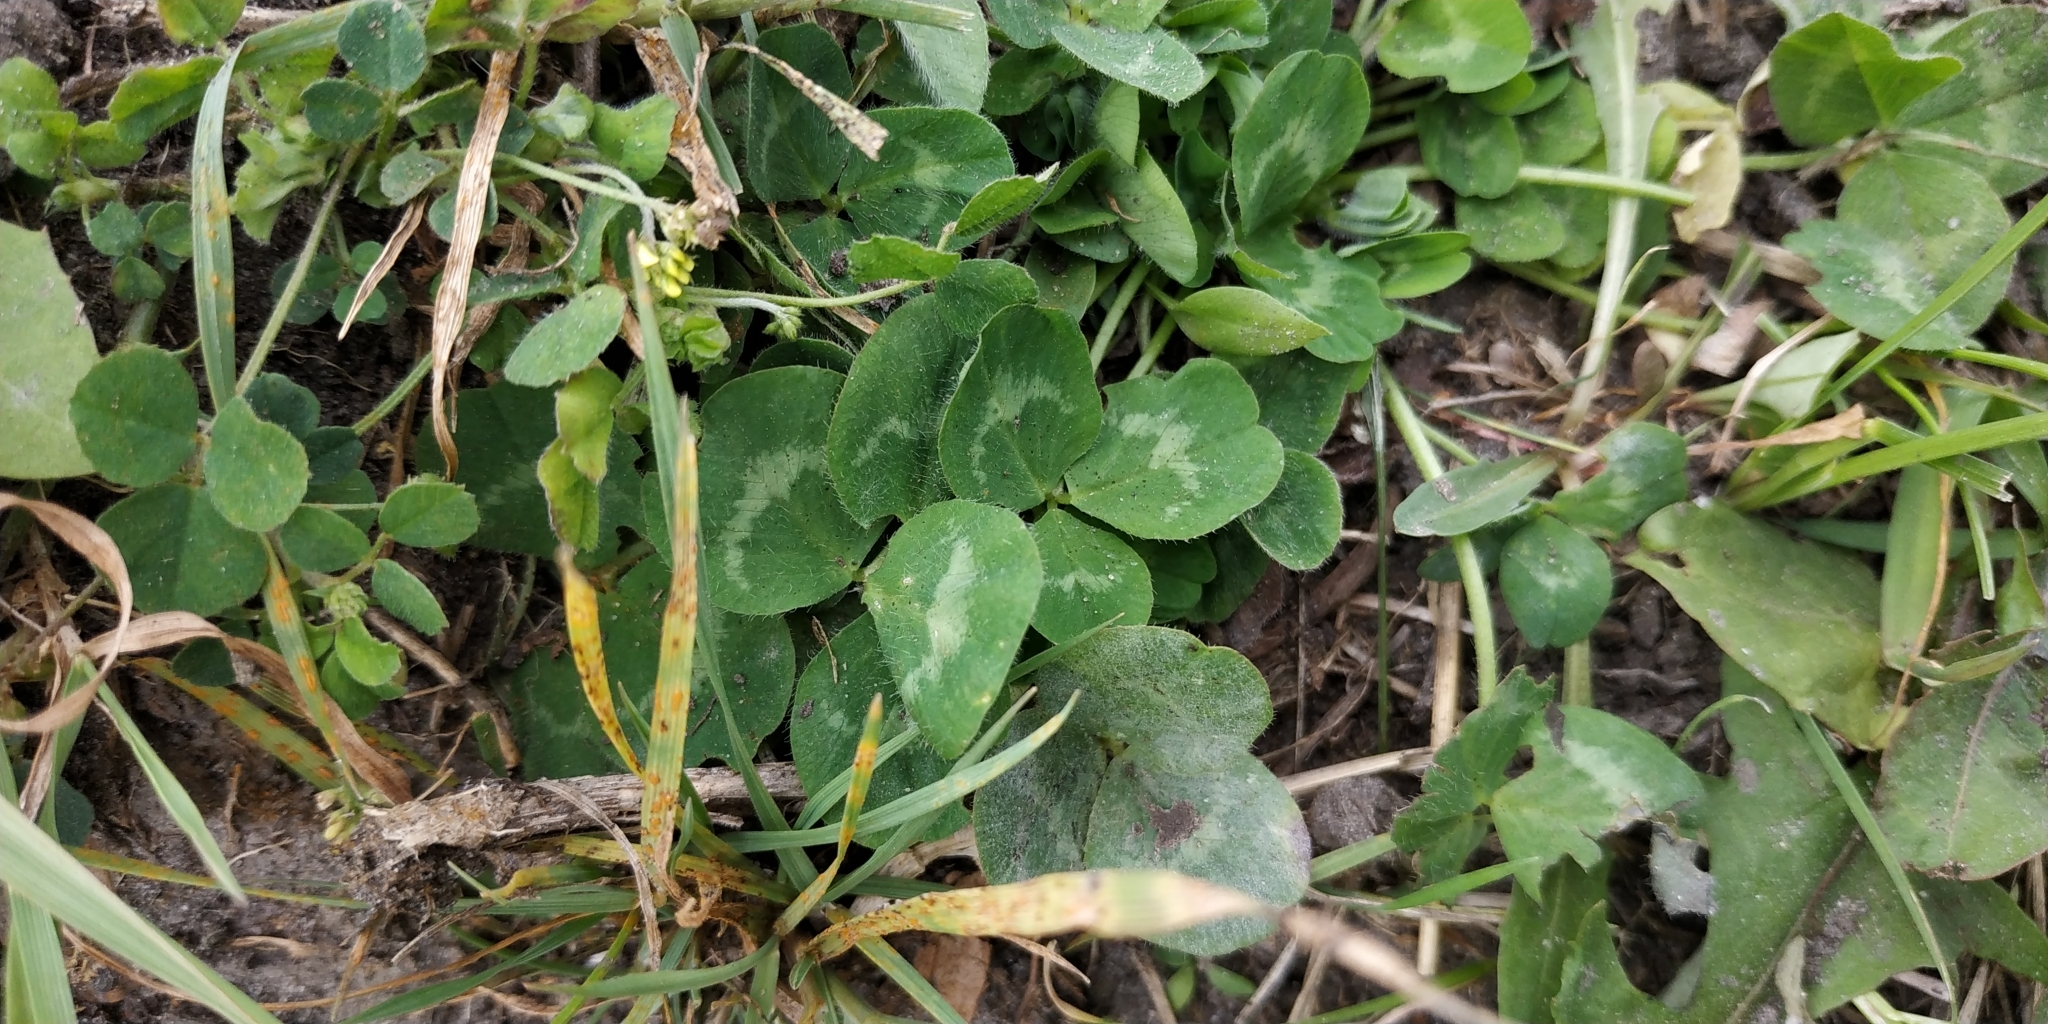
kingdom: Plantae
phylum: Tracheophyta
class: Magnoliopsida
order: Fabales
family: Fabaceae
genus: Trifolium
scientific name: Trifolium pratense
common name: Red clover
